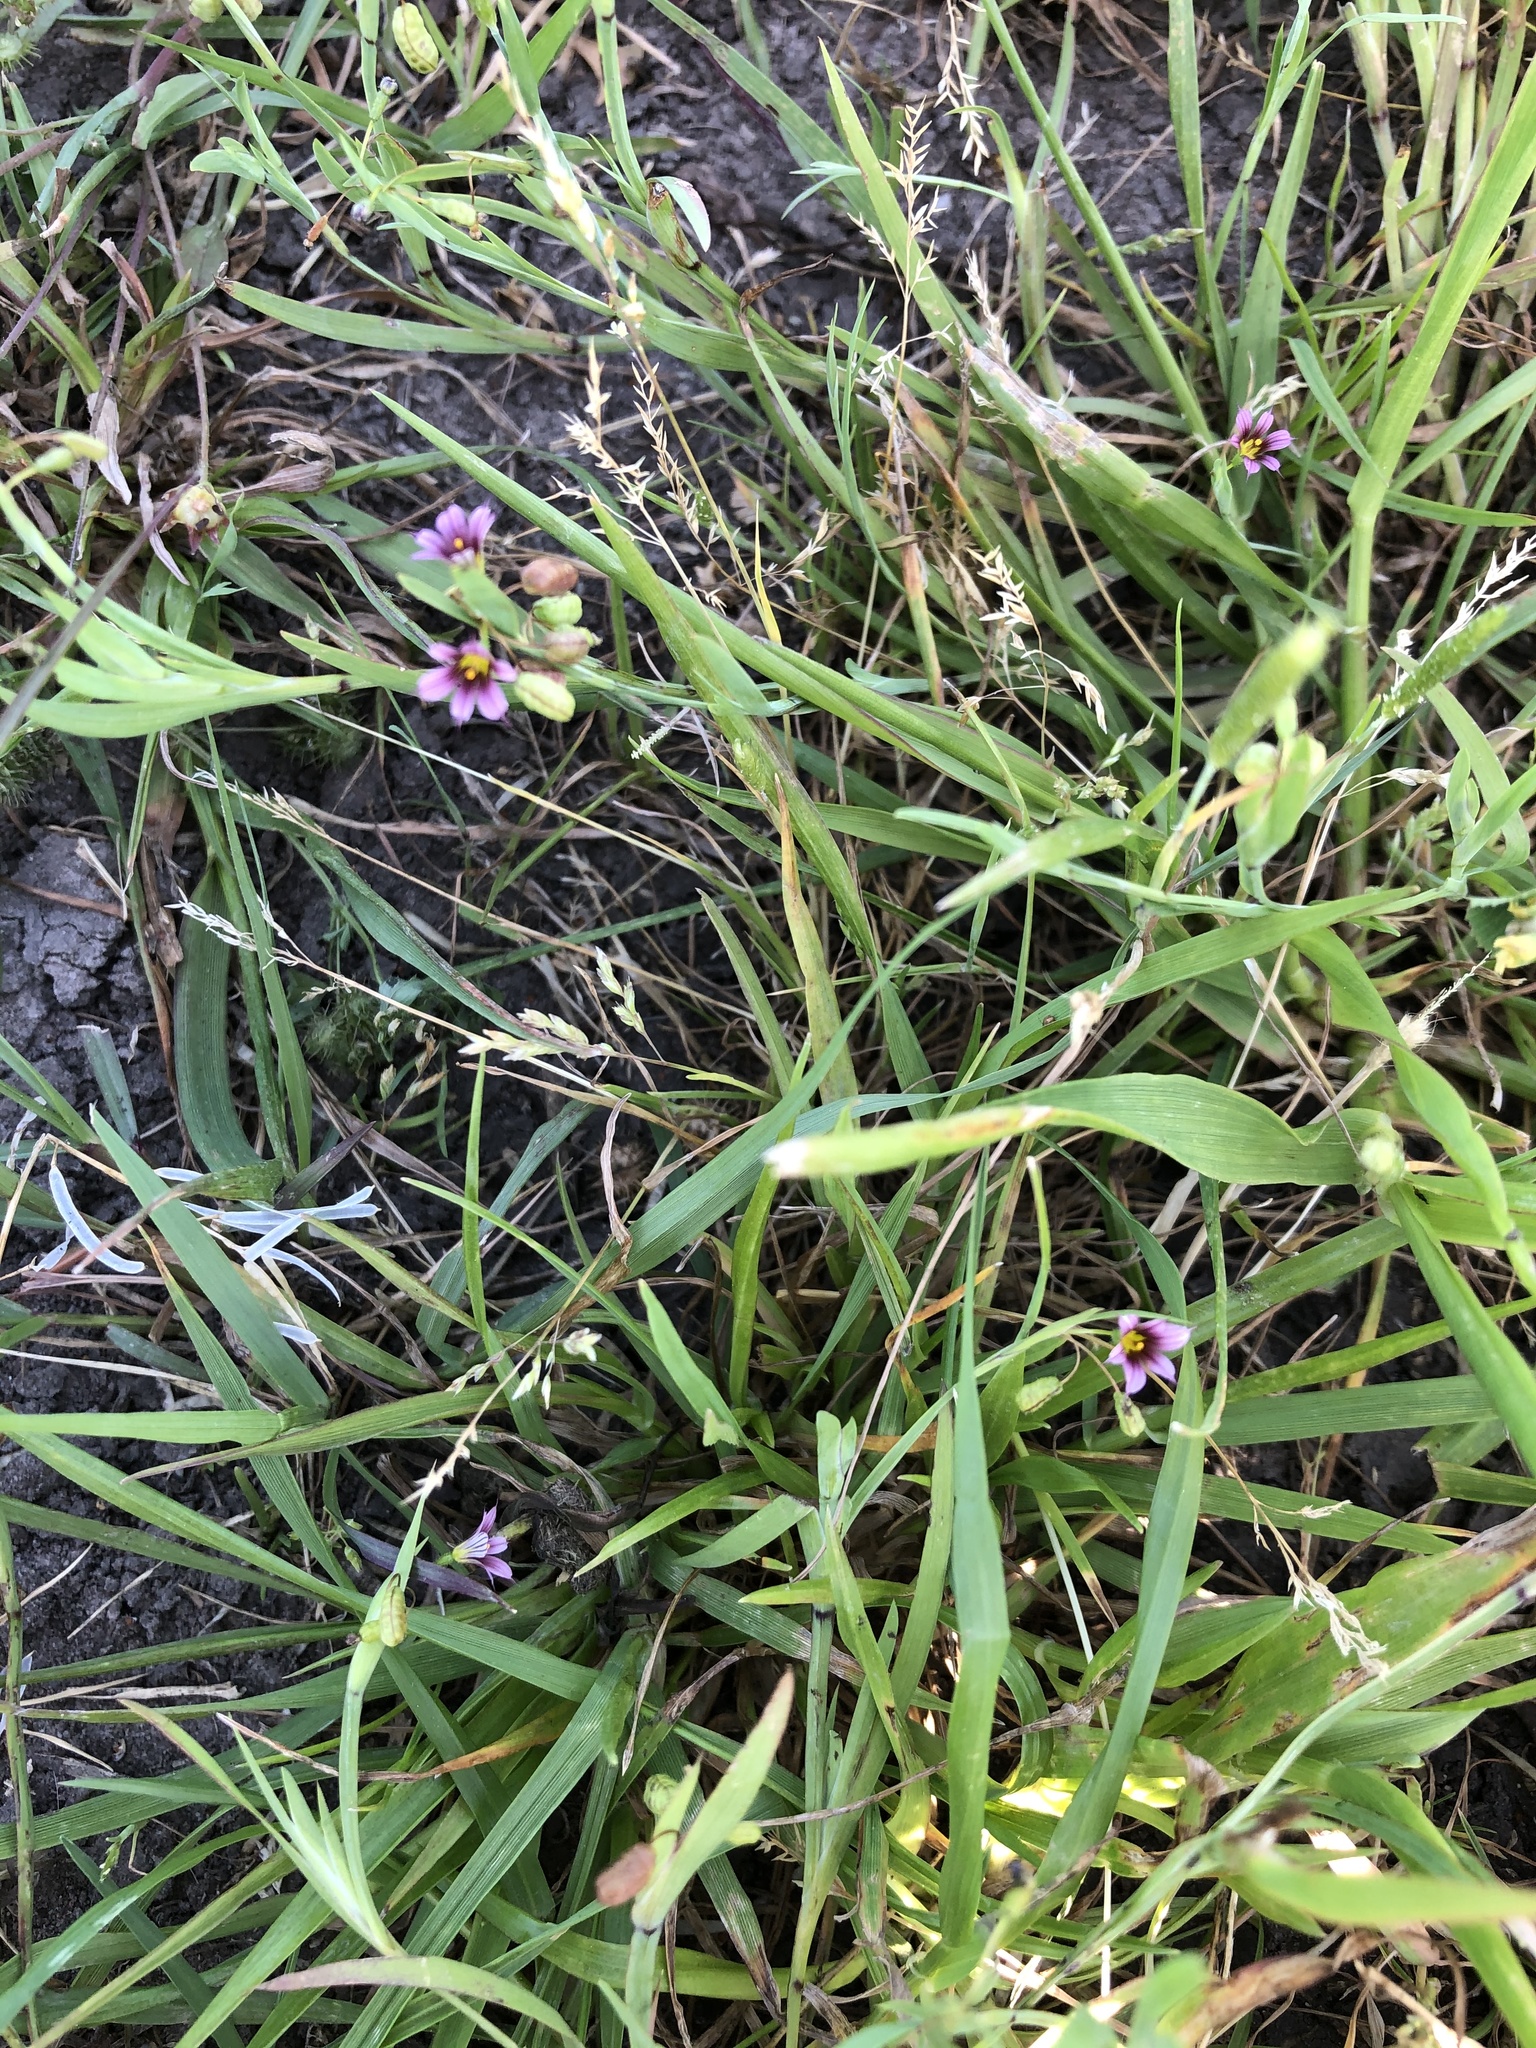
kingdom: Plantae
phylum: Tracheophyta
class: Liliopsida
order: Asparagales
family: Iridaceae
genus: Sisyrinchium
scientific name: Sisyrinchium minus
